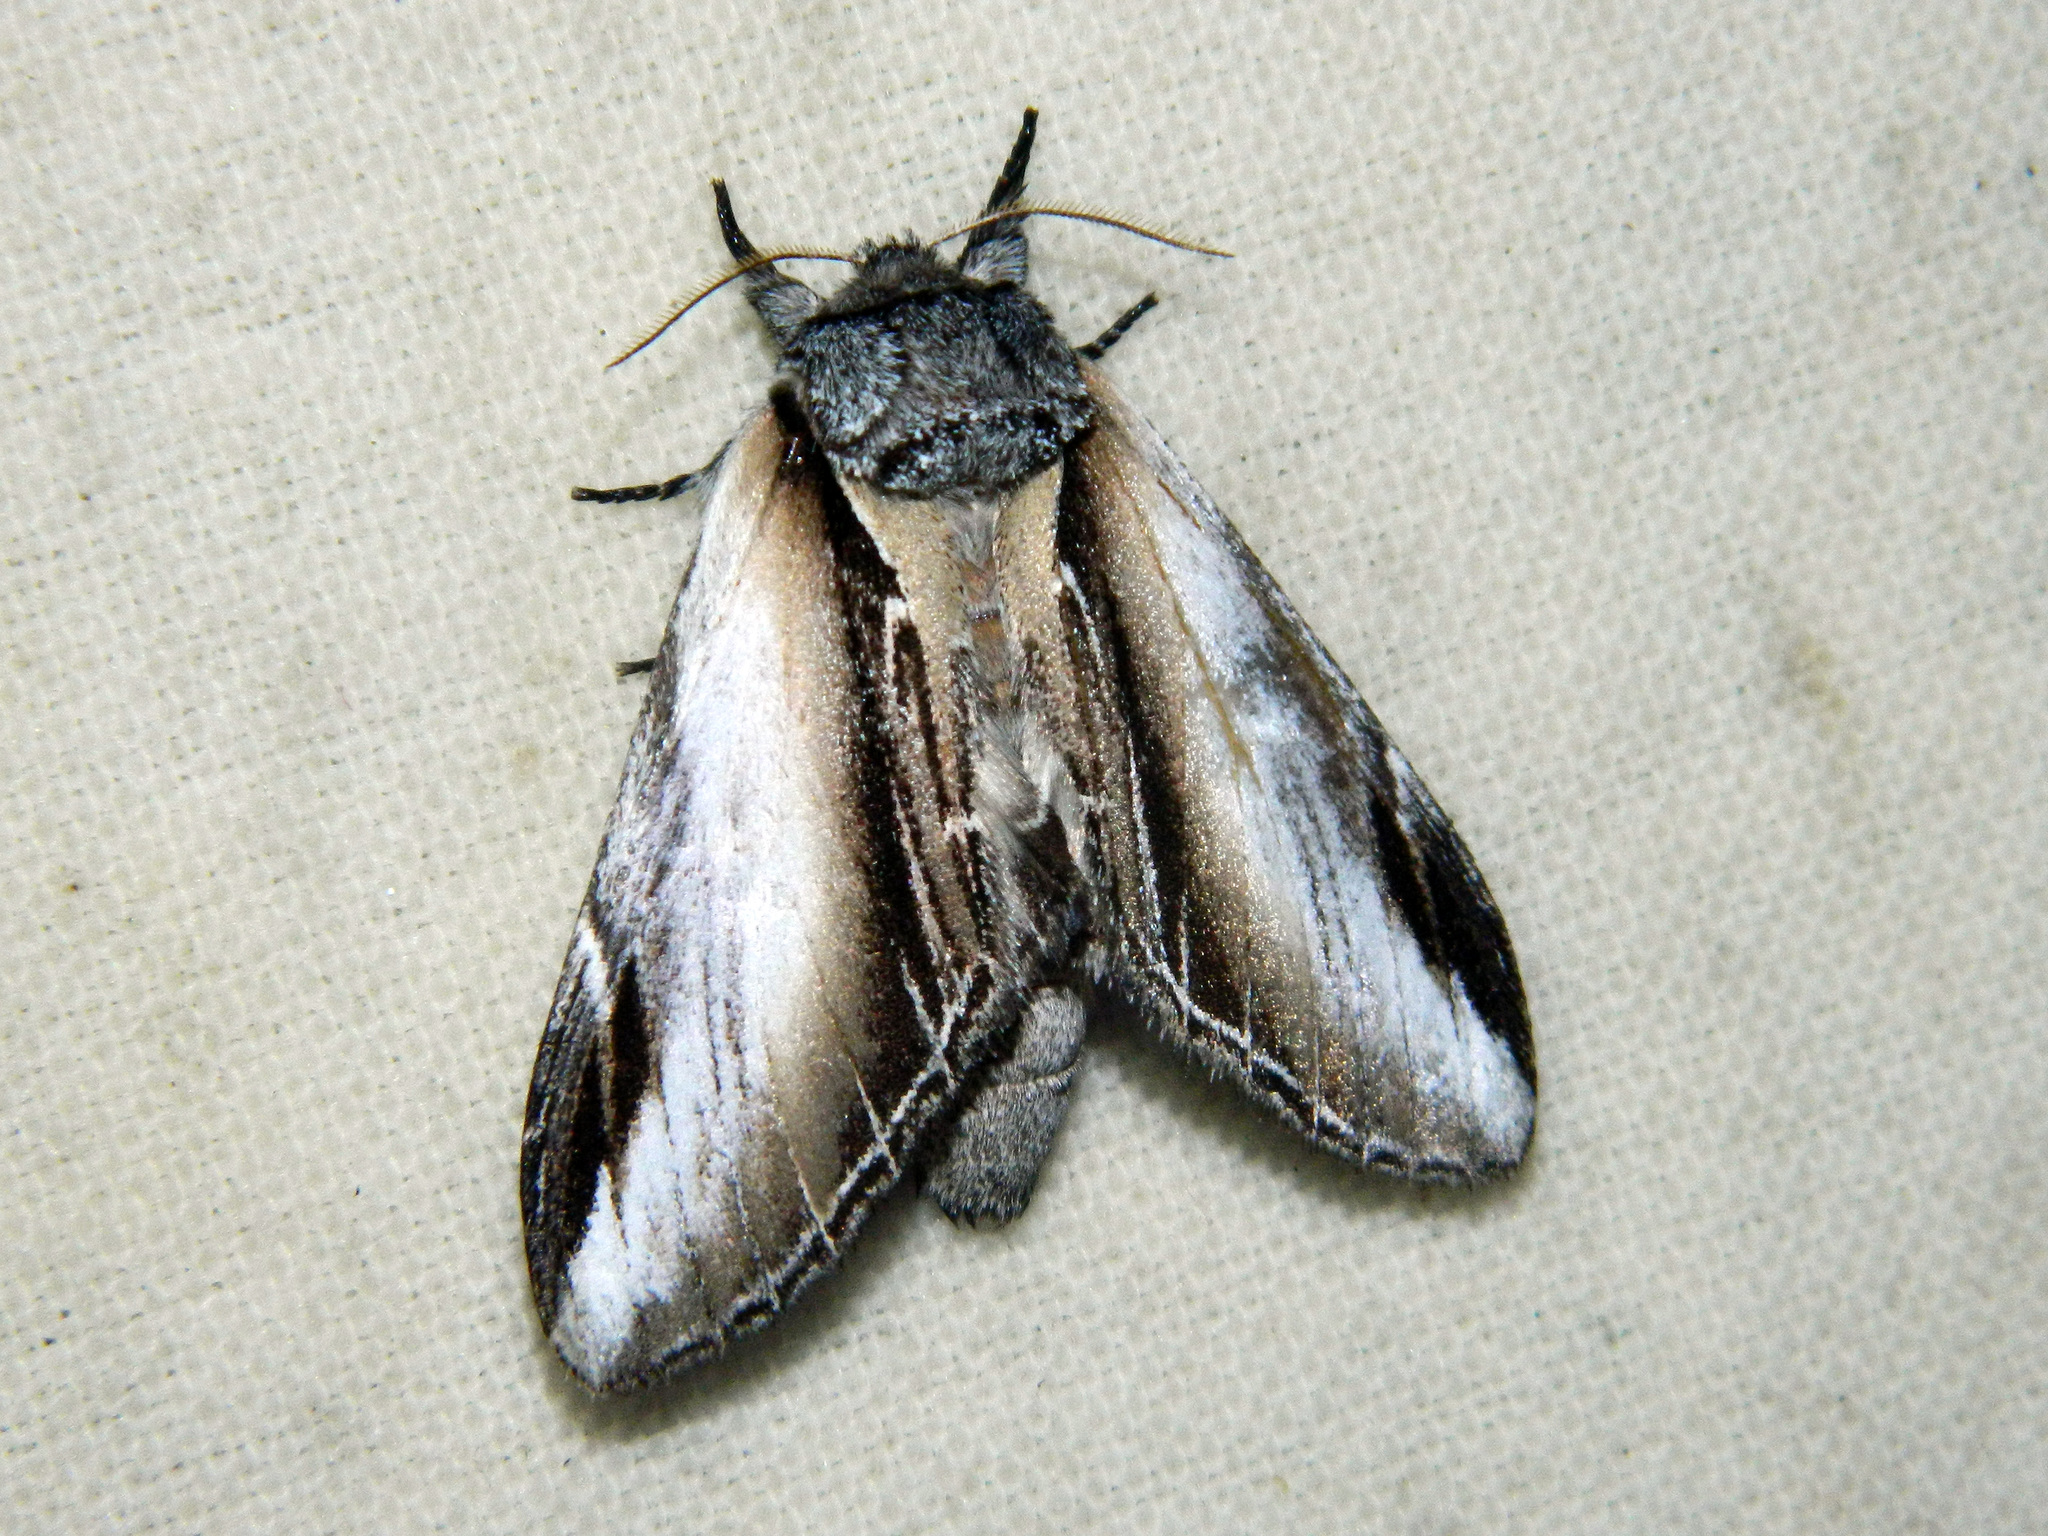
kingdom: Animalia
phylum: Arthropoda
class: Insecta
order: Lepidoptera
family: Notodontidae
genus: Pheosia
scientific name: Pheosia rimosa
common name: Black-rimmed prominent
